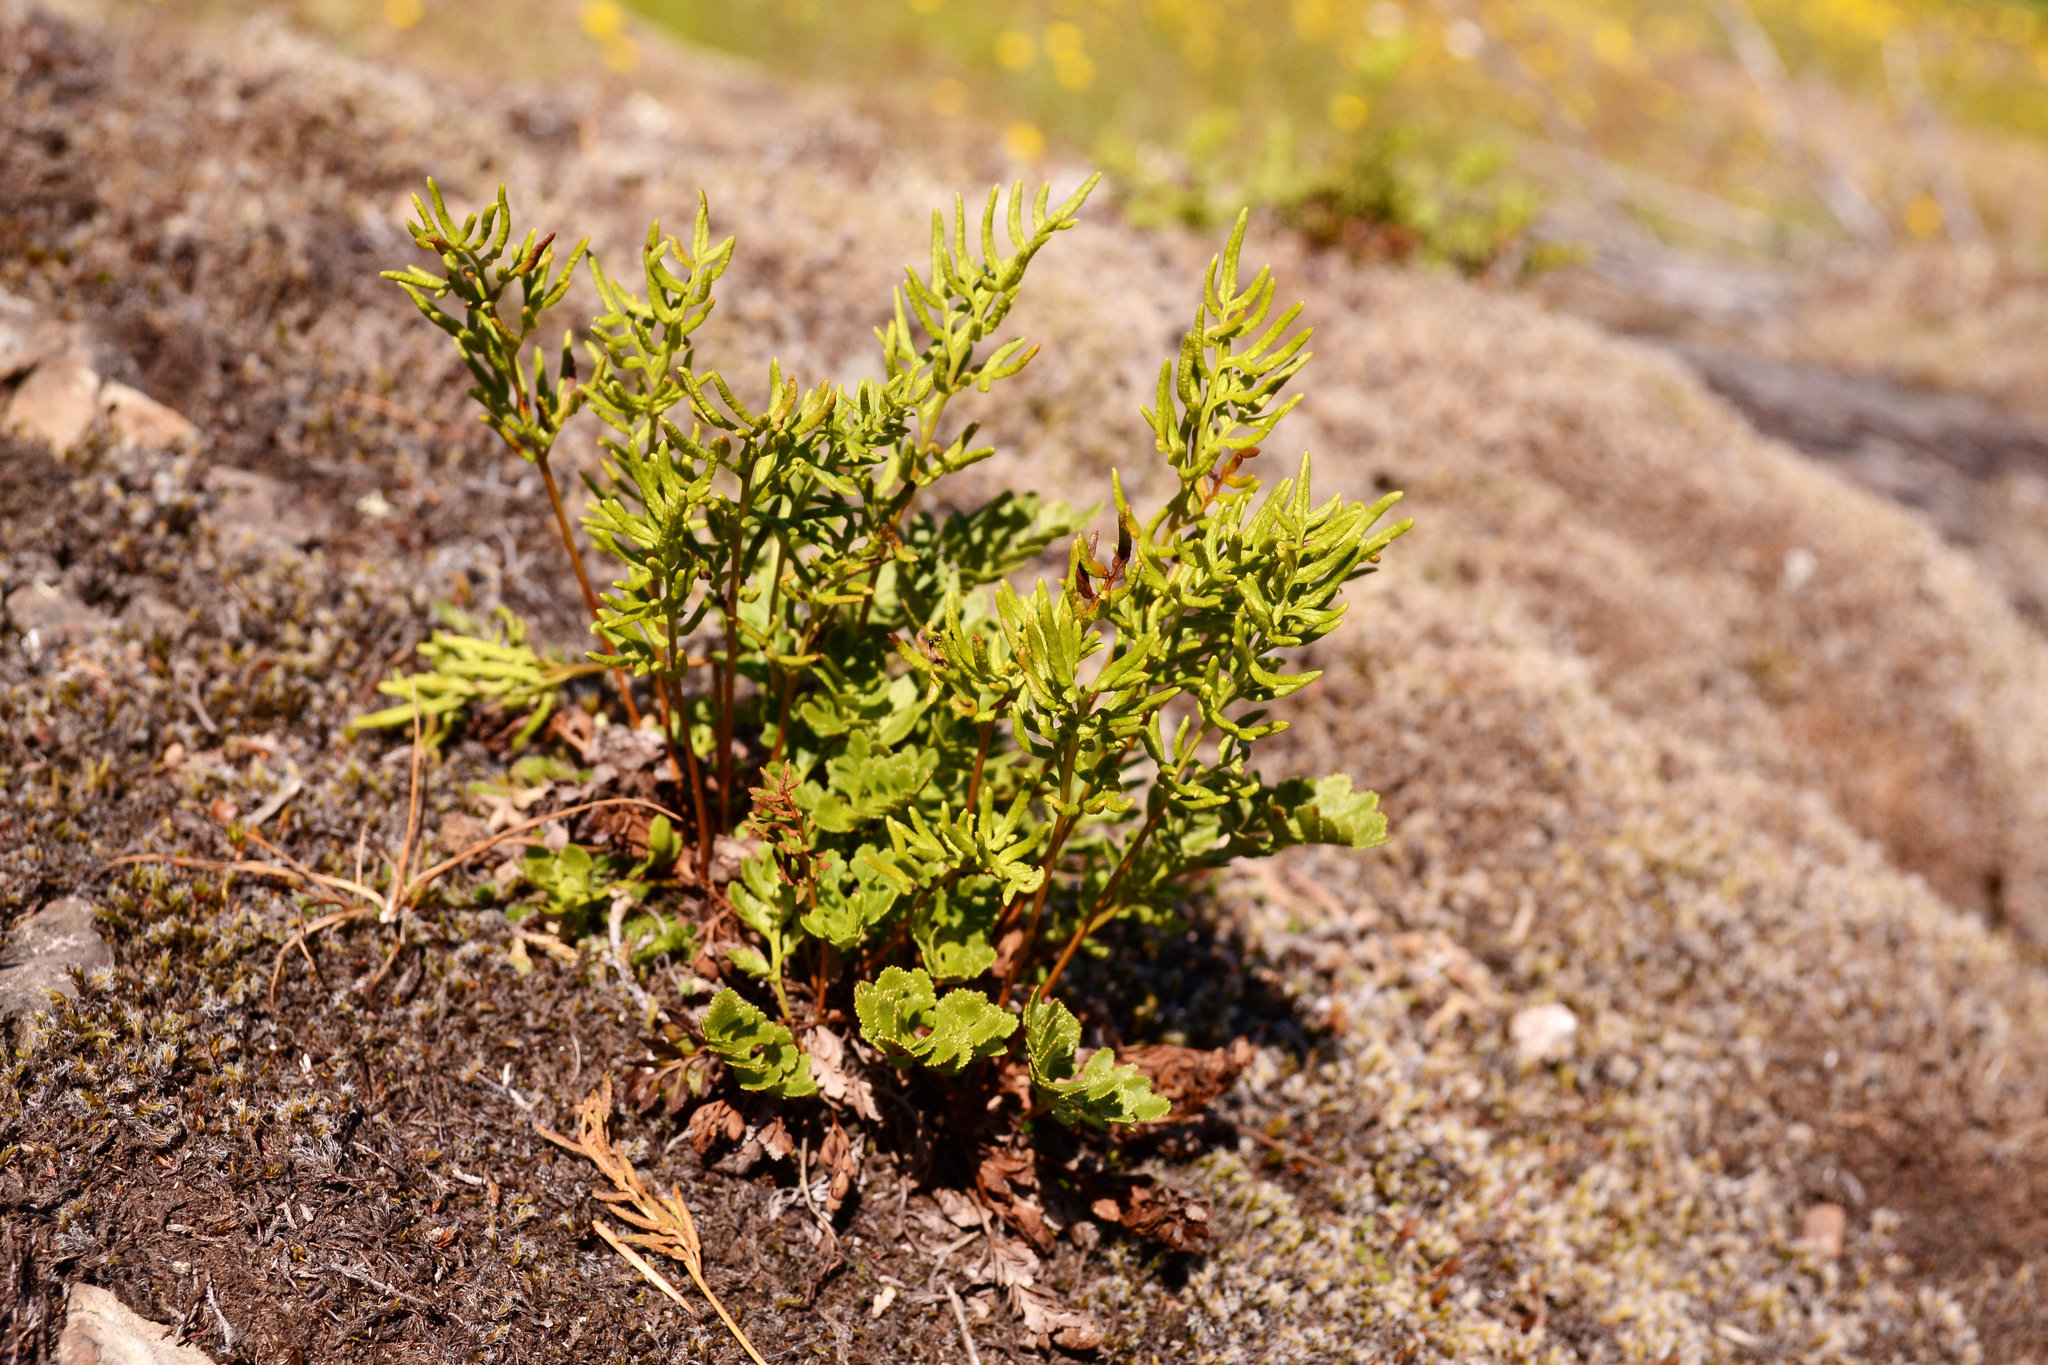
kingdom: Plantae
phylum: Tracheophyta
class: Polypodiopsida
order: Polypodiales
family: Pteridaceae
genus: Cryptogramma
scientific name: Cryptogramma acrostichoides
